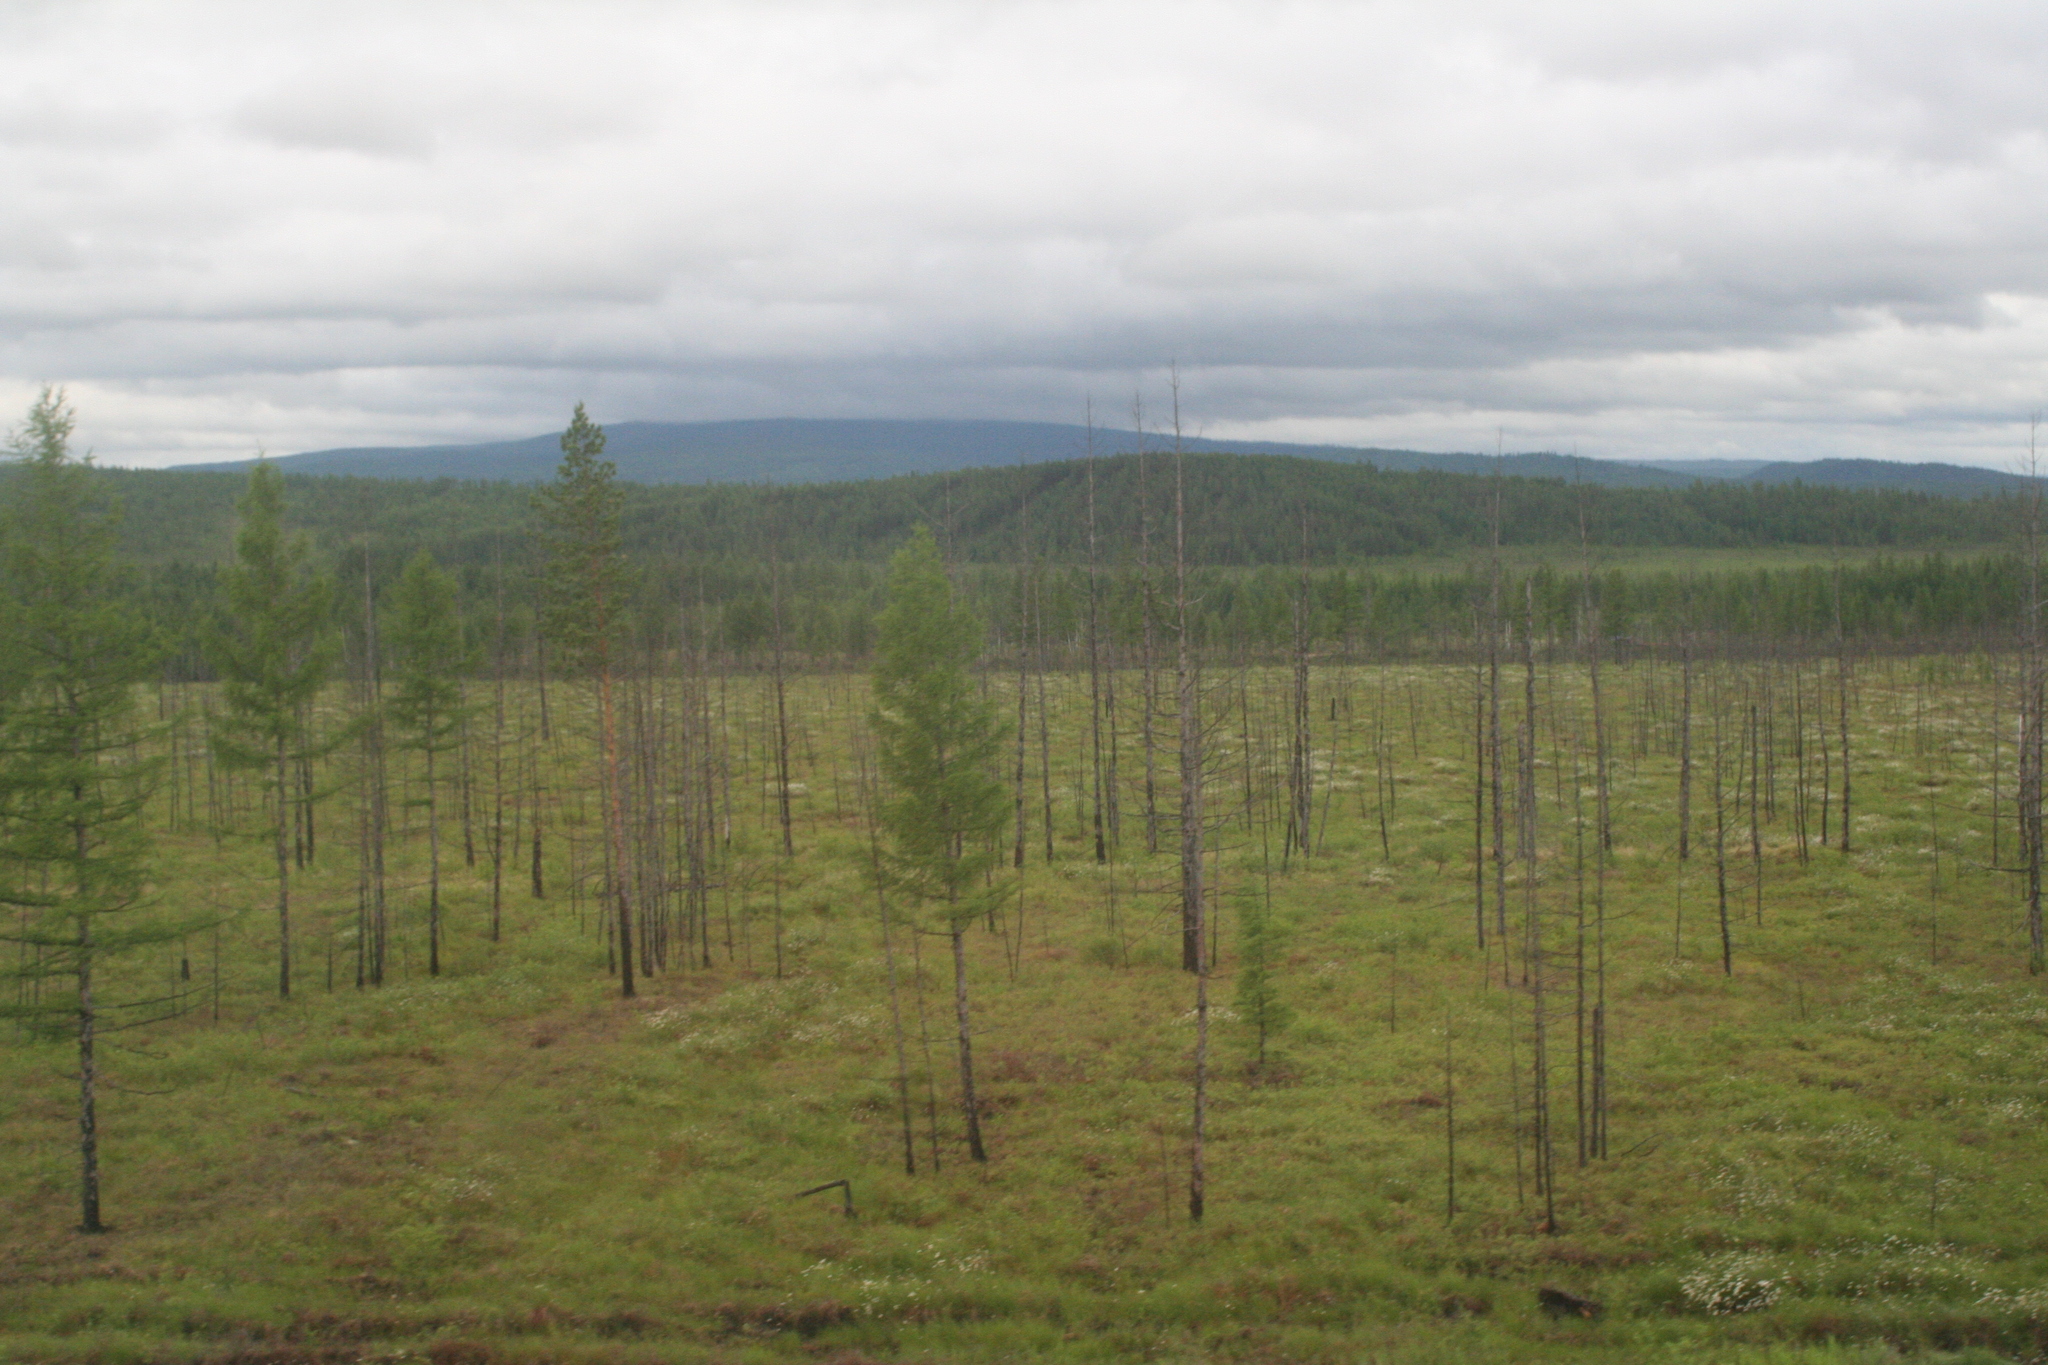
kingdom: Plantae
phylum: Tracheophyta
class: Pinopsida
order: Pinales
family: Pinaceae
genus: Larix
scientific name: Larix gmelinii
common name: Dahurian larch
